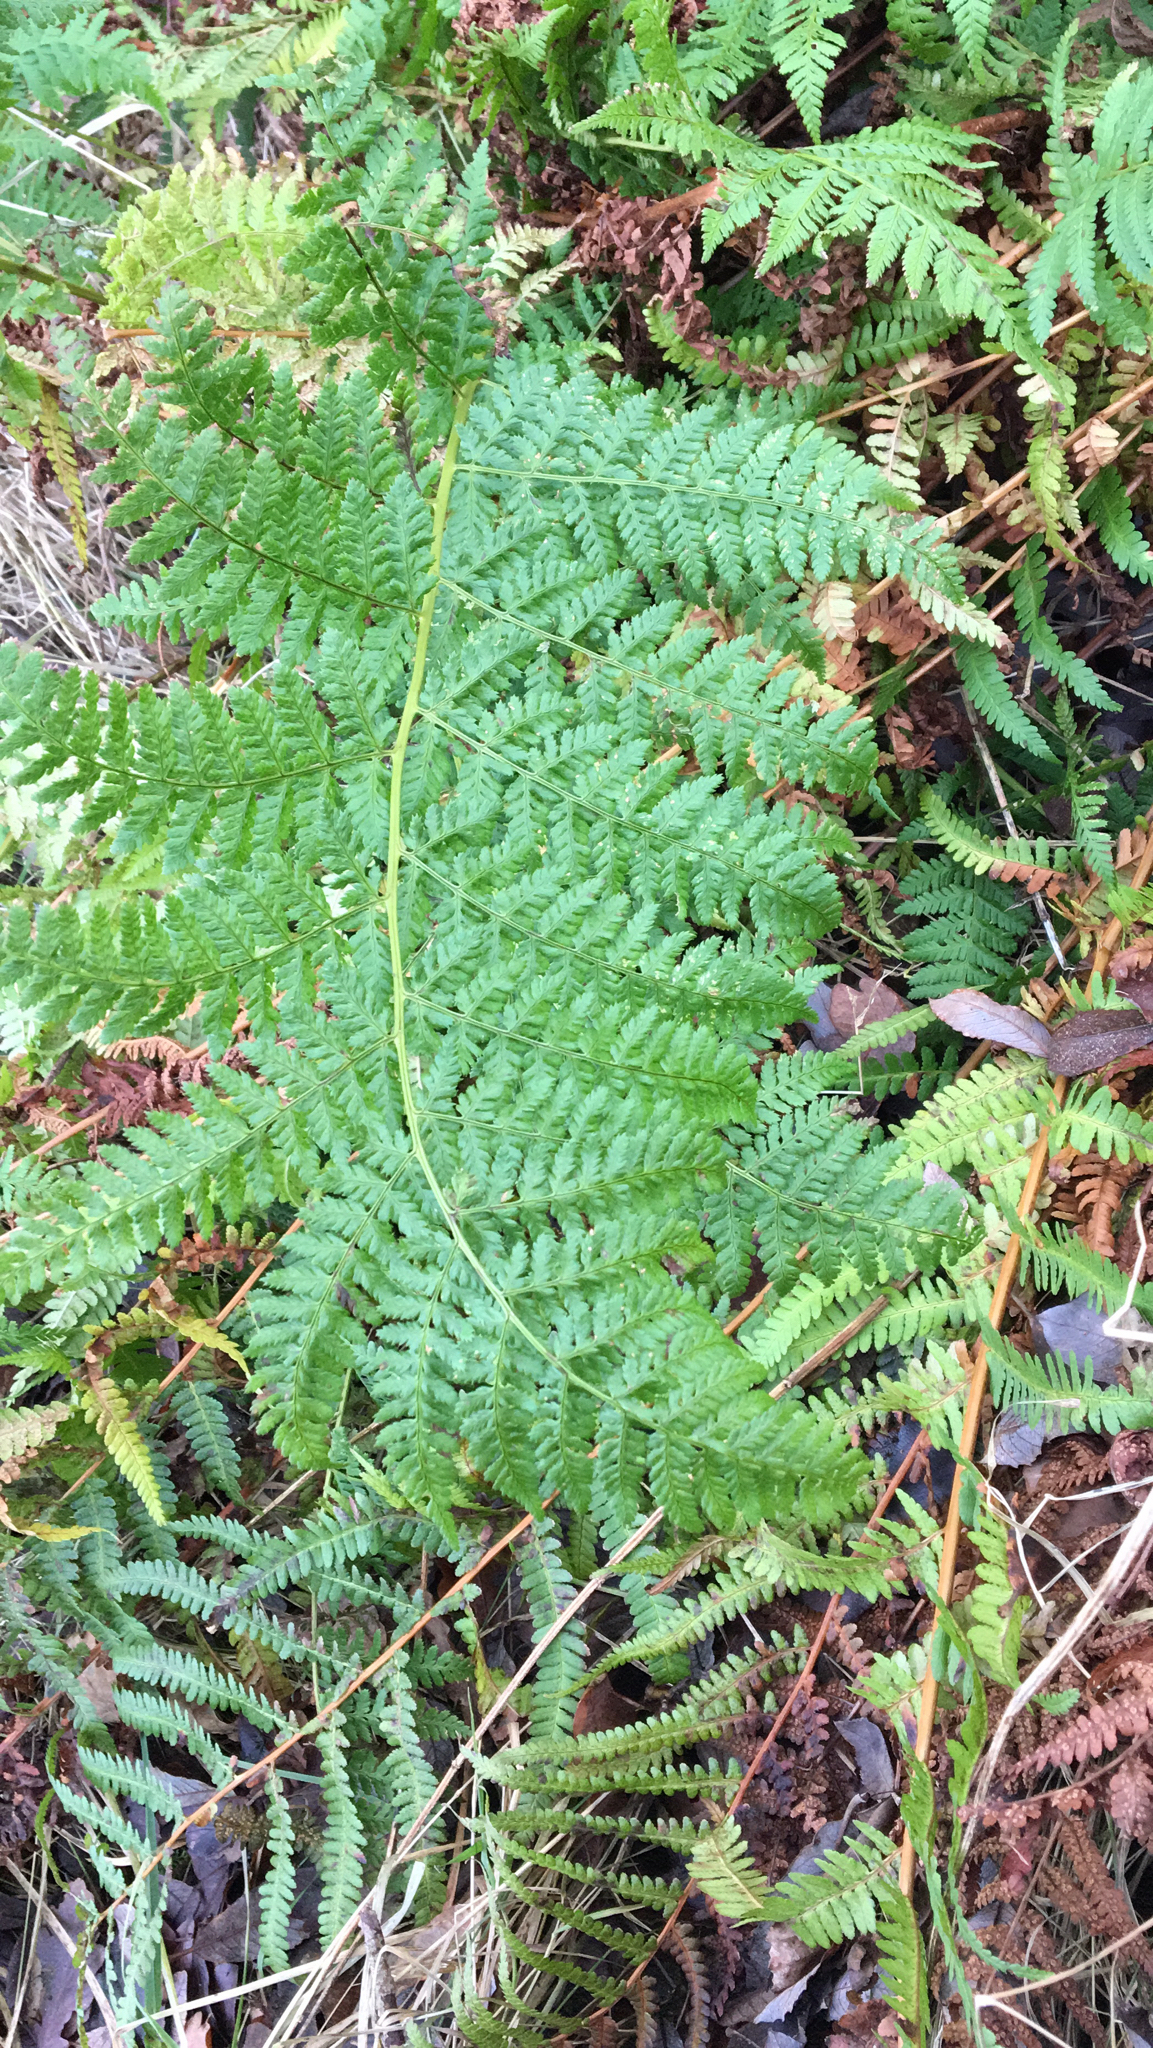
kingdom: Plantae
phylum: Tracheophyta
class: Polypodiopsida
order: Polypodiales
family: Dryopteridaceae
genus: Dryopteris
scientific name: Dryopteris dilatata
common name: Broad buckler-fern
